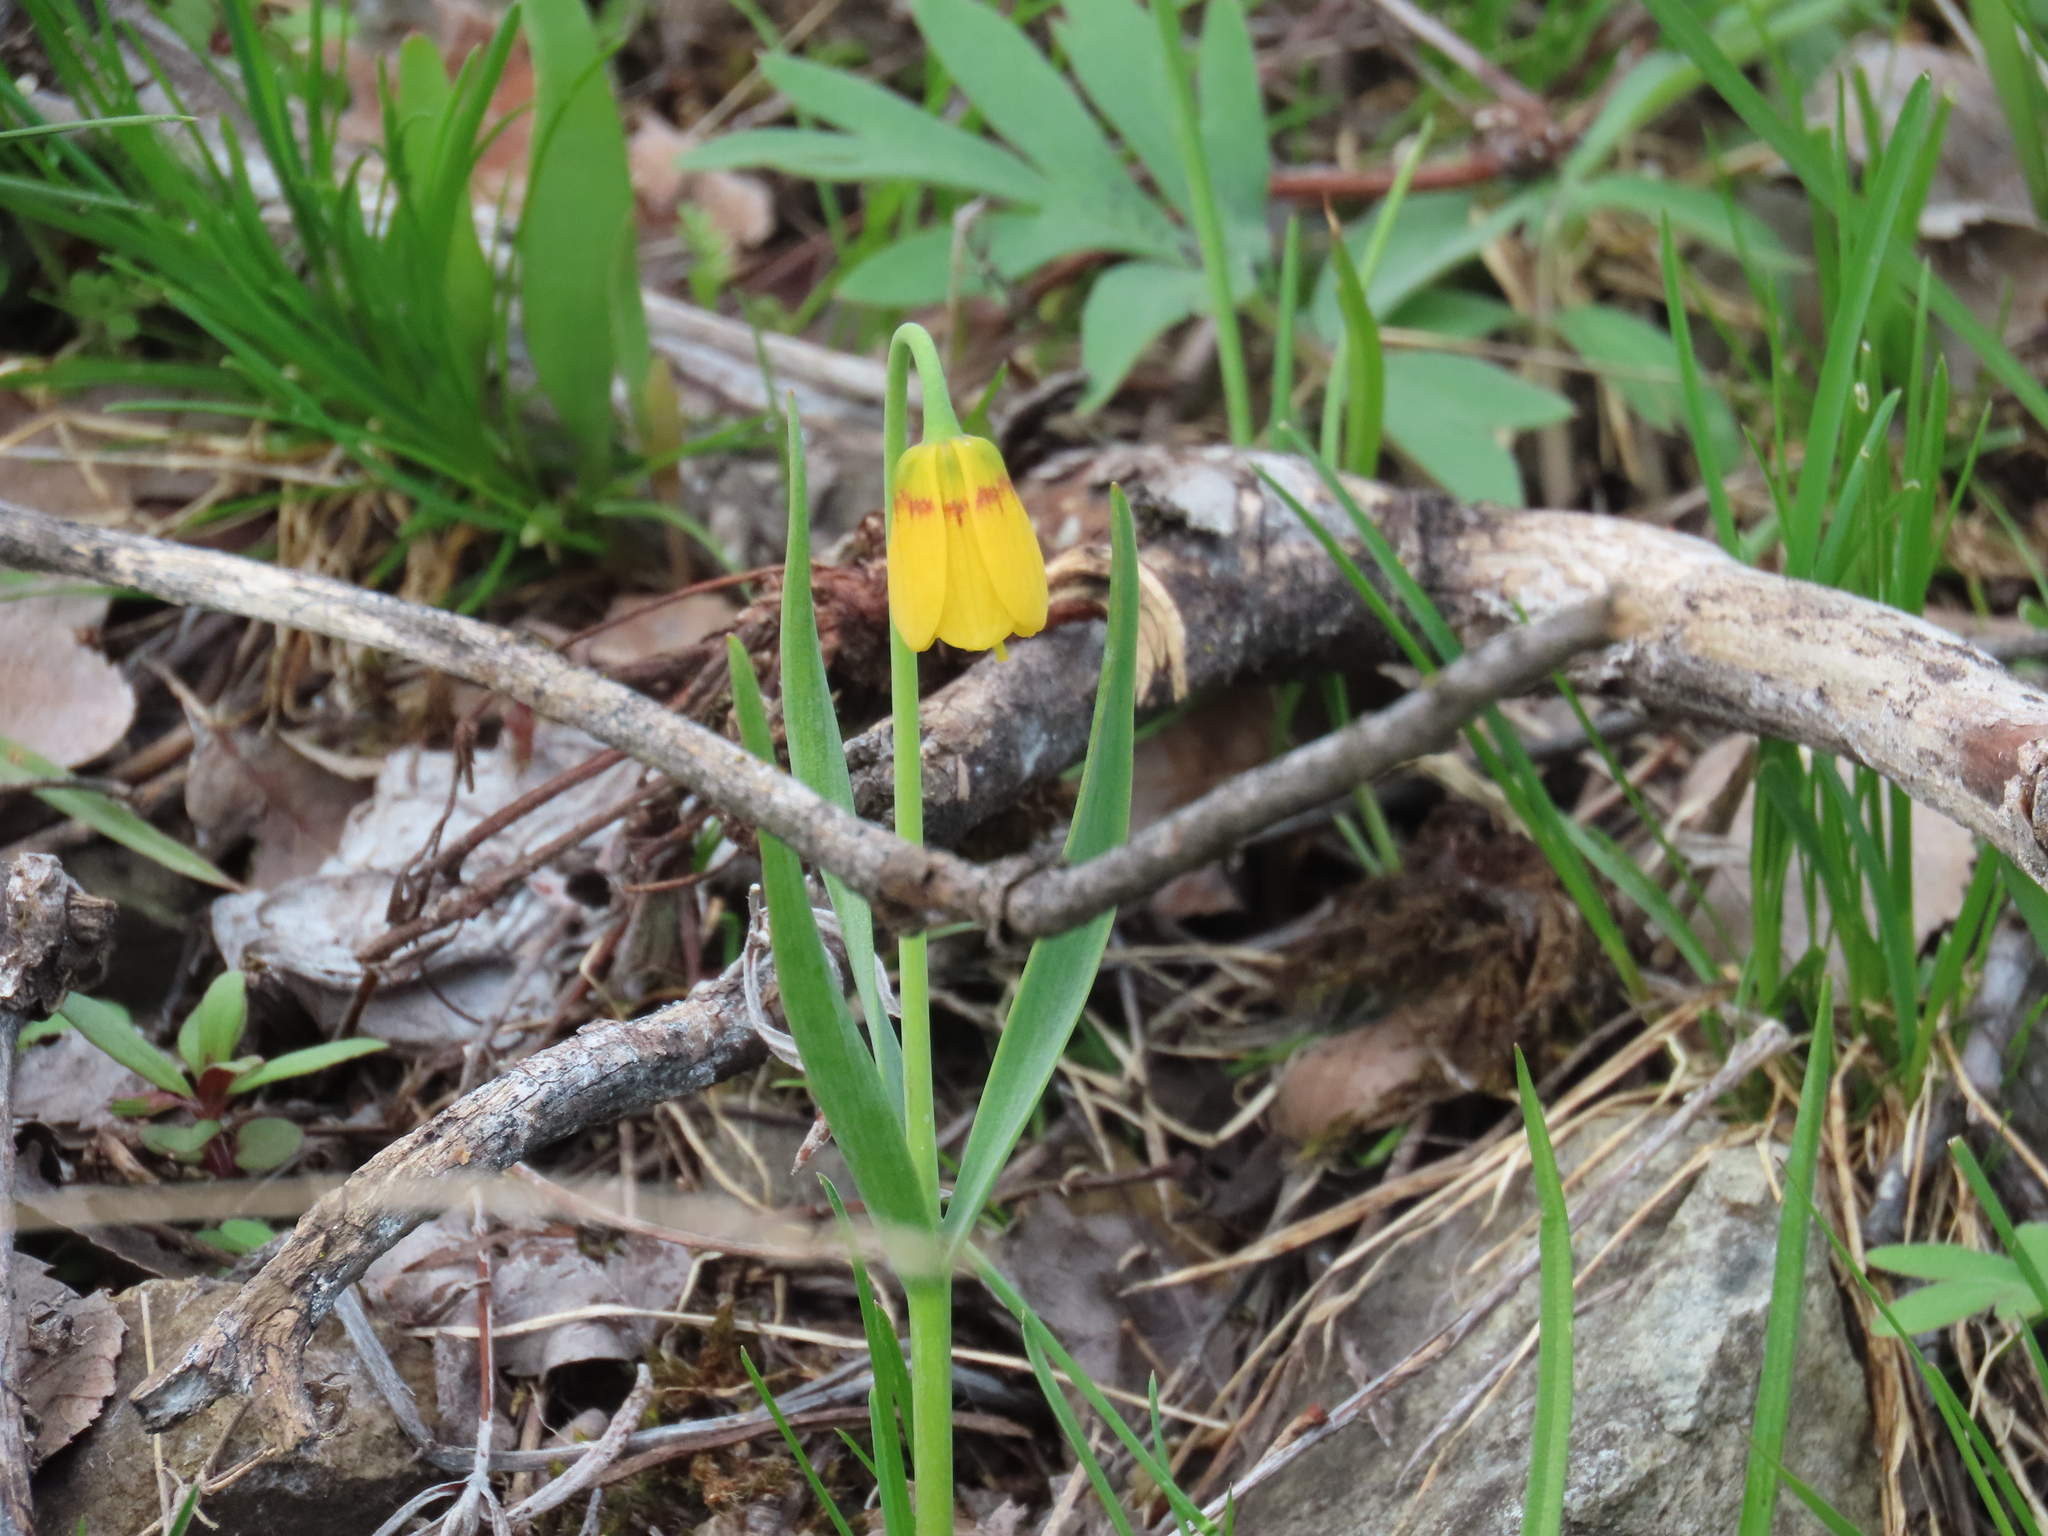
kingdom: Plantae
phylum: Tracheophyta
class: Liliopsida
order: Liliales
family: Liliaceae
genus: Fritillaria
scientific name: Fritillaria pudica
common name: Yellow fritillary
